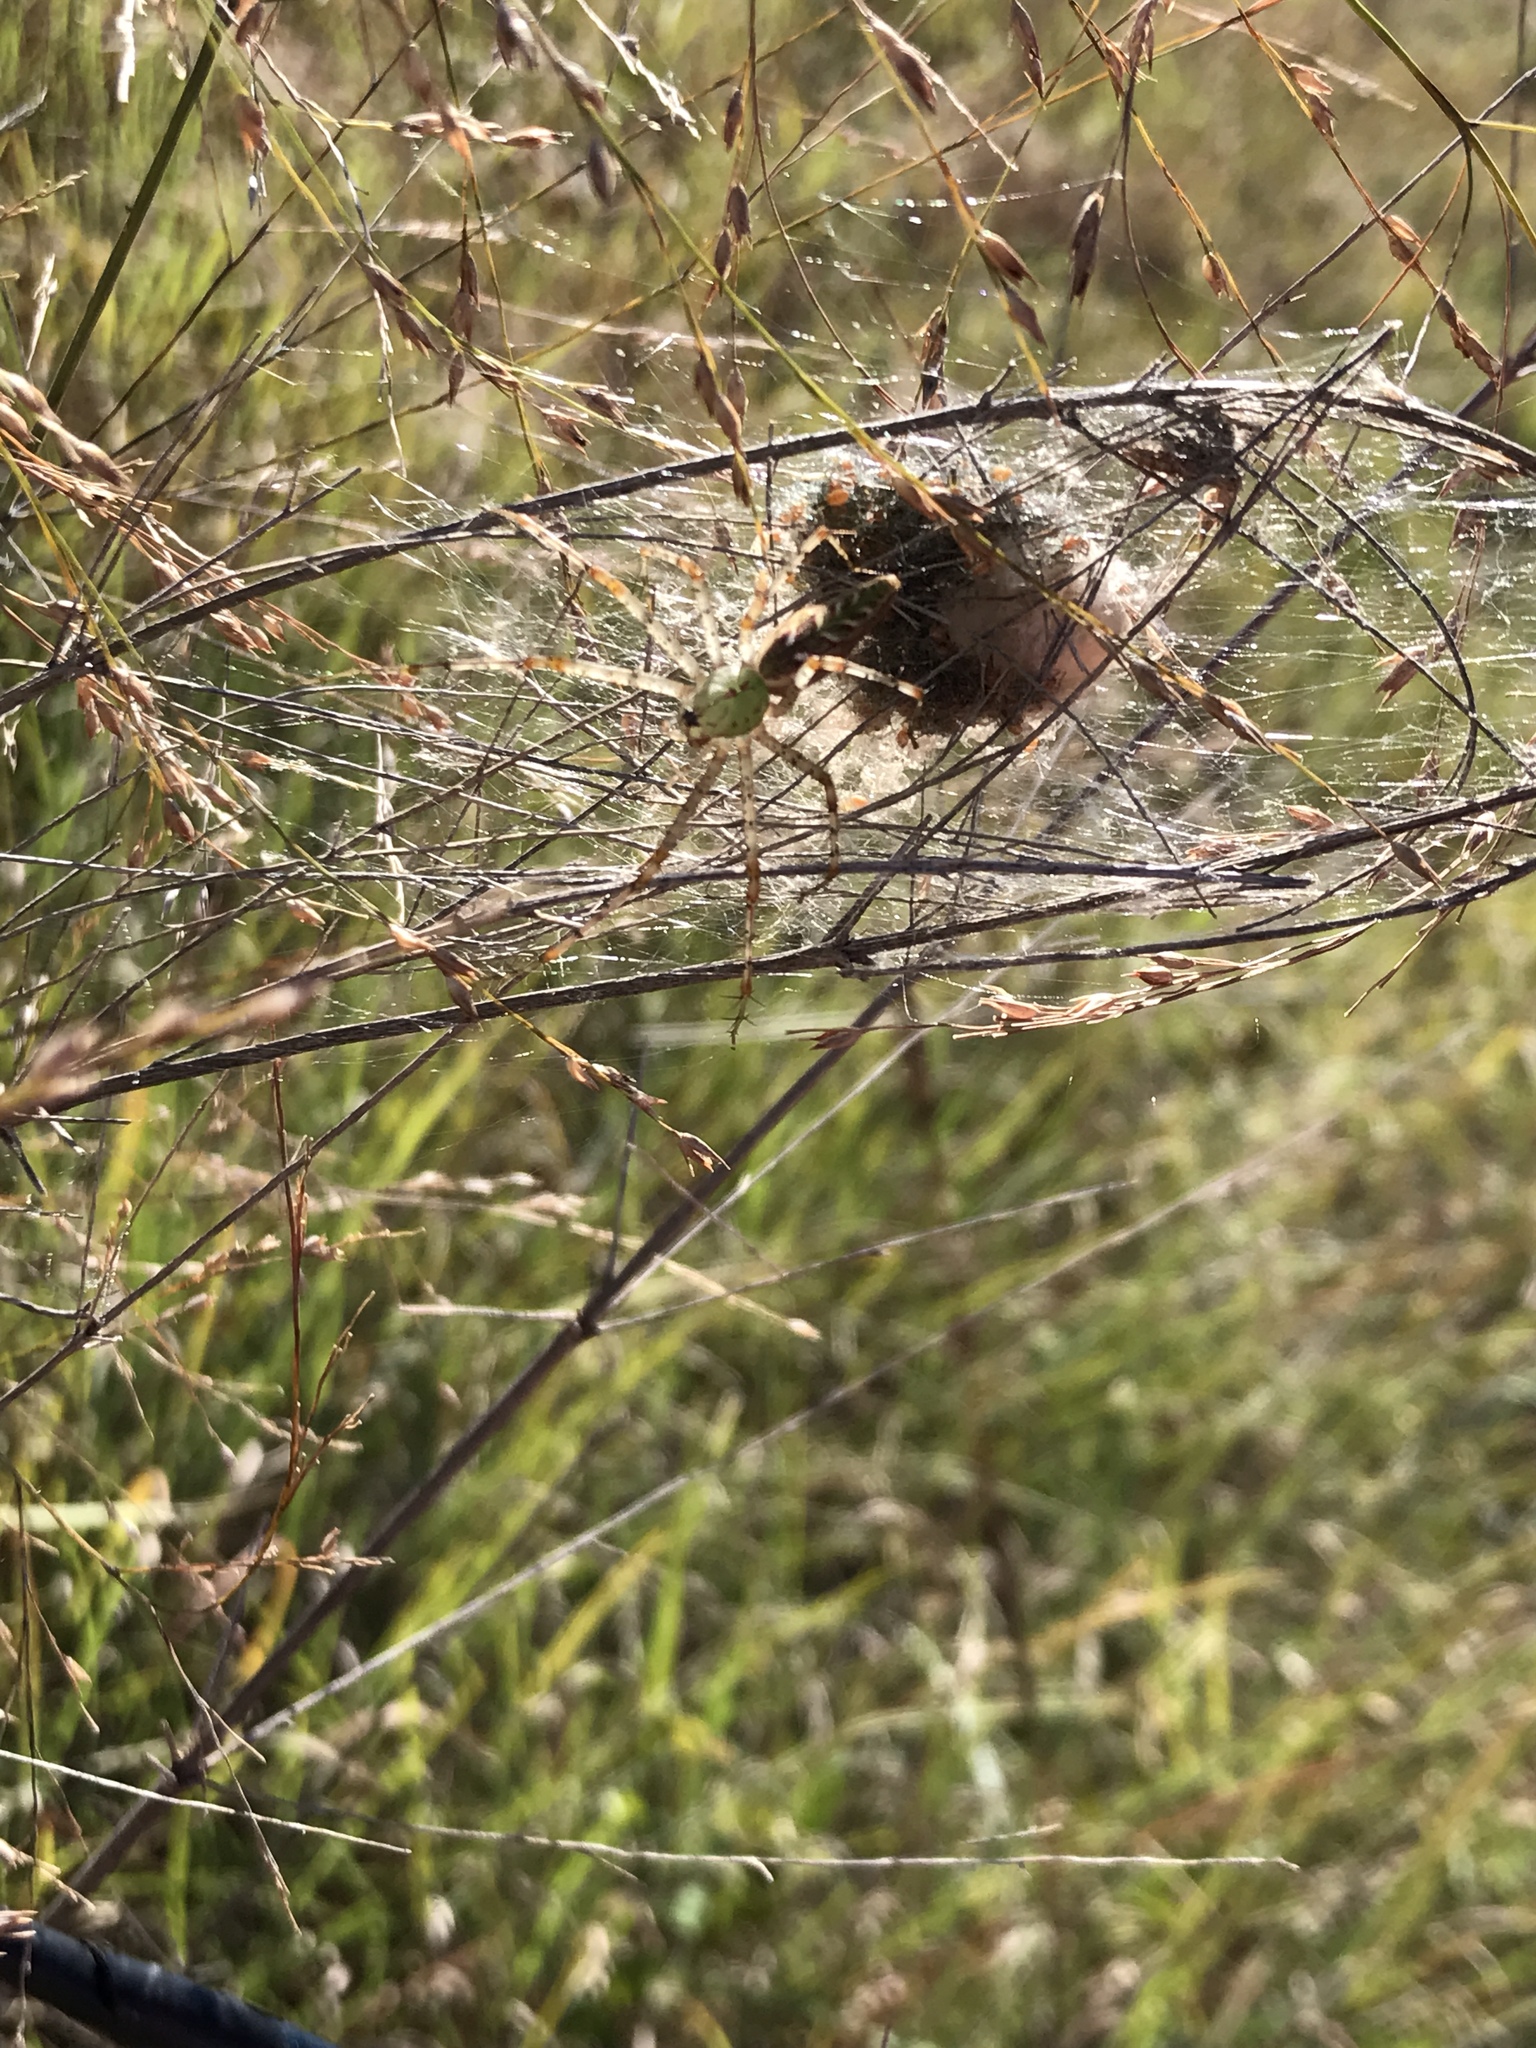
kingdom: Animalia
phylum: Arthropoda
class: Arachnida
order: Araneae
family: Oxyopidae
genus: Peucetia
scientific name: Peucetia viridans
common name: Lynx spiders
